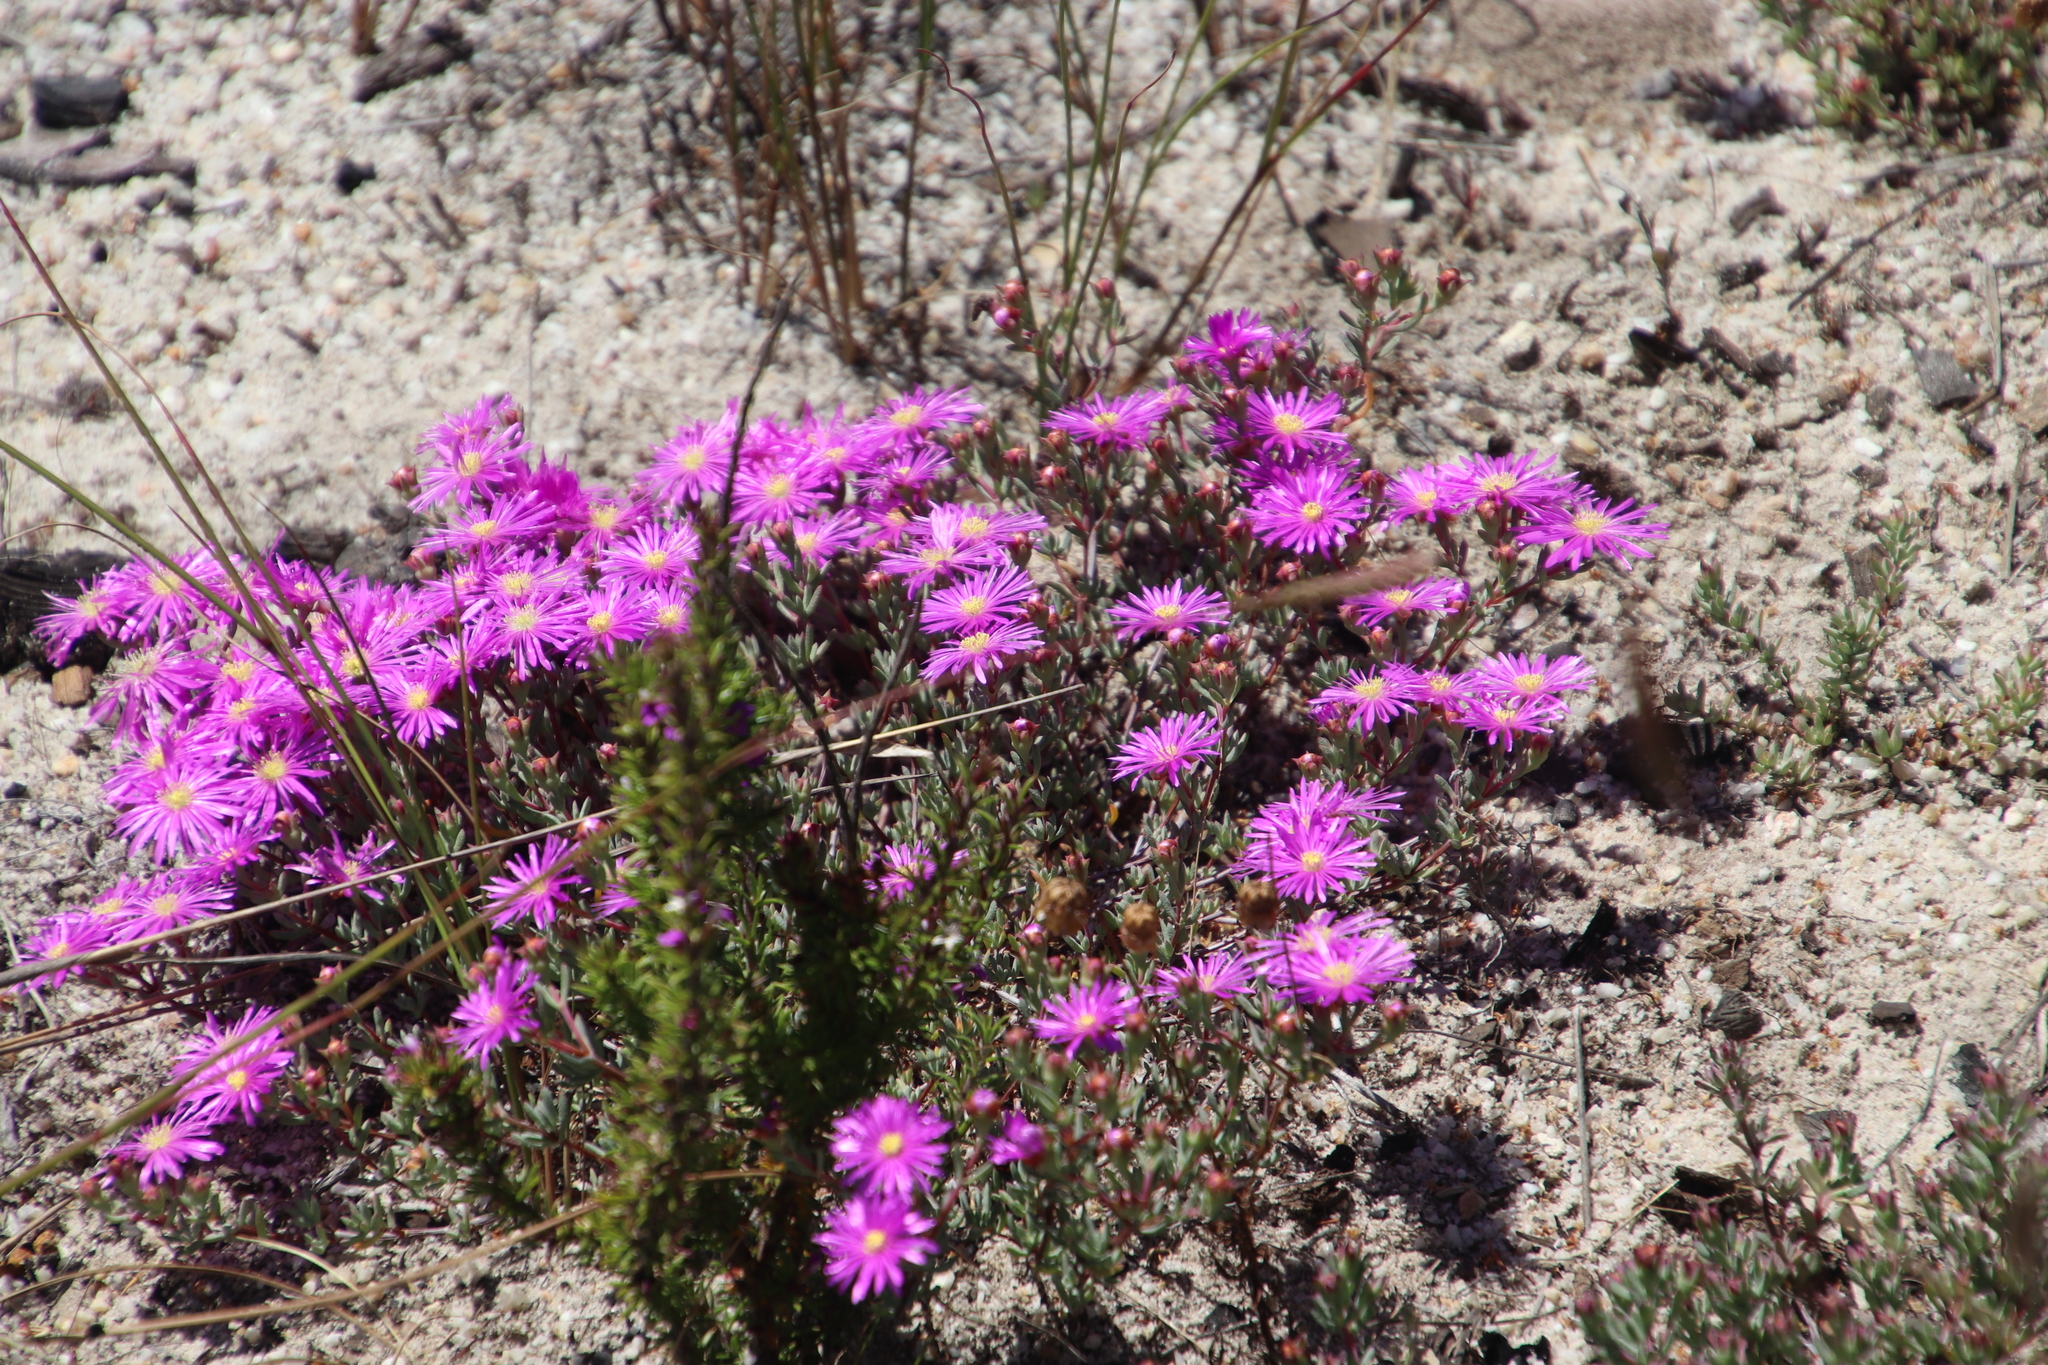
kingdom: Plantae
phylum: Tracheophyta
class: Magnoliopsida
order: Caryophyllales
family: Aizoaceae
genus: Lampranthus
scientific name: Lampranthus emarginatus
